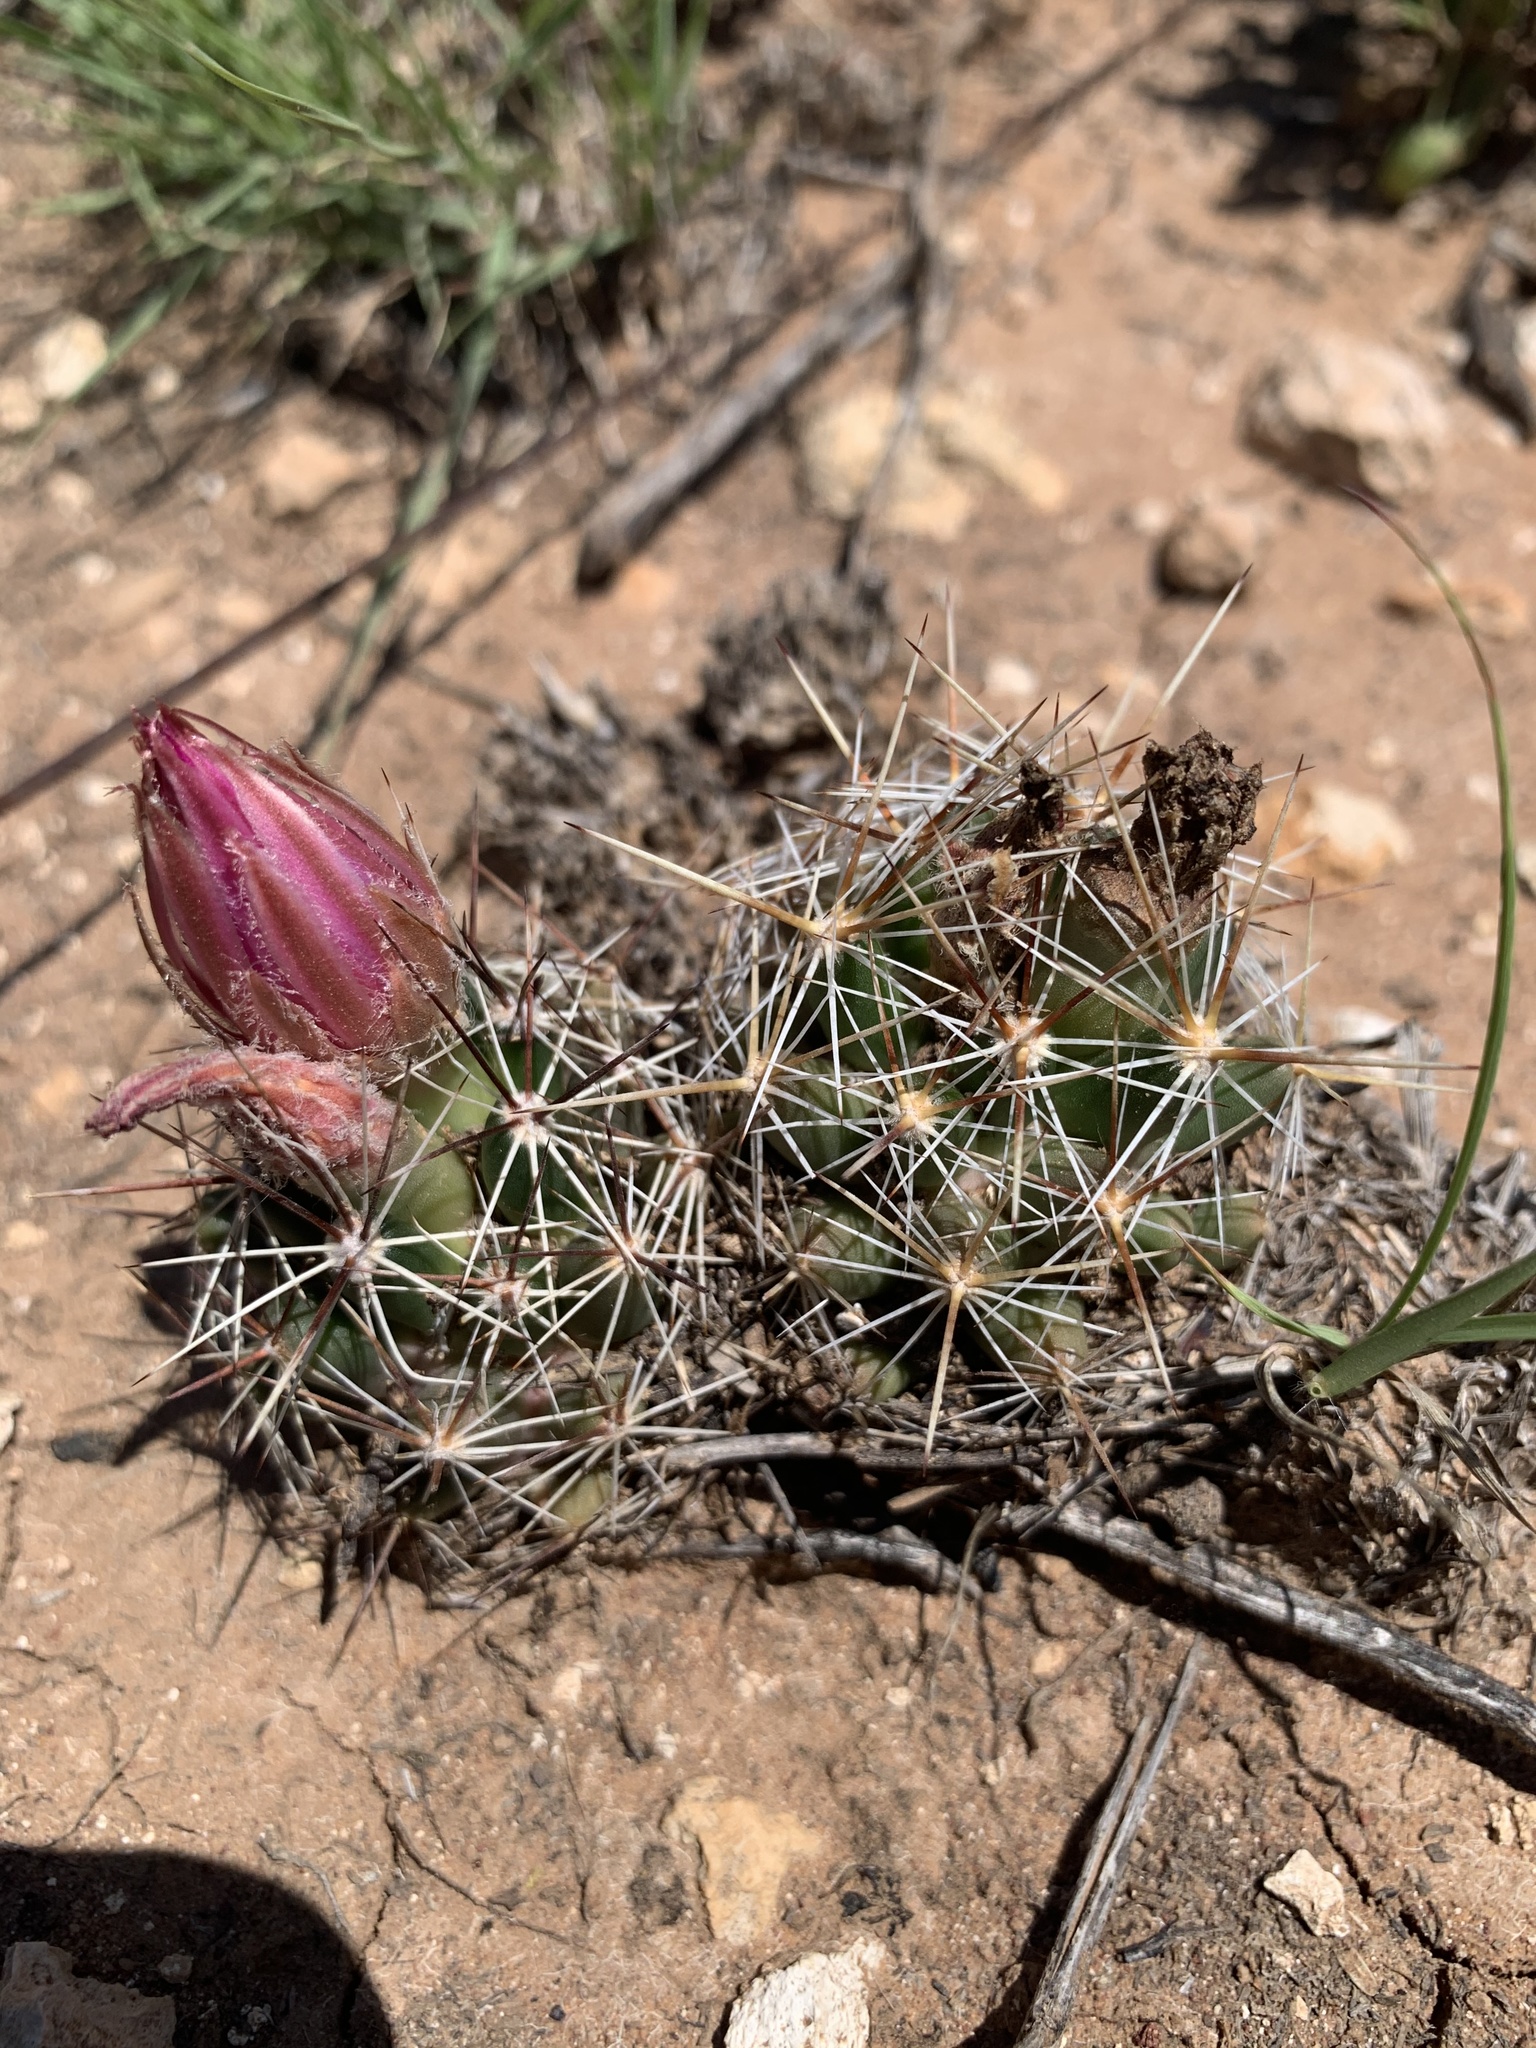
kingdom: Plantae
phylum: Tracheophyta
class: Magnoliopsida
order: Caryophyllales
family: Cactaceae
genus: Pelecyphora
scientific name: Pelecyphora vivipara
